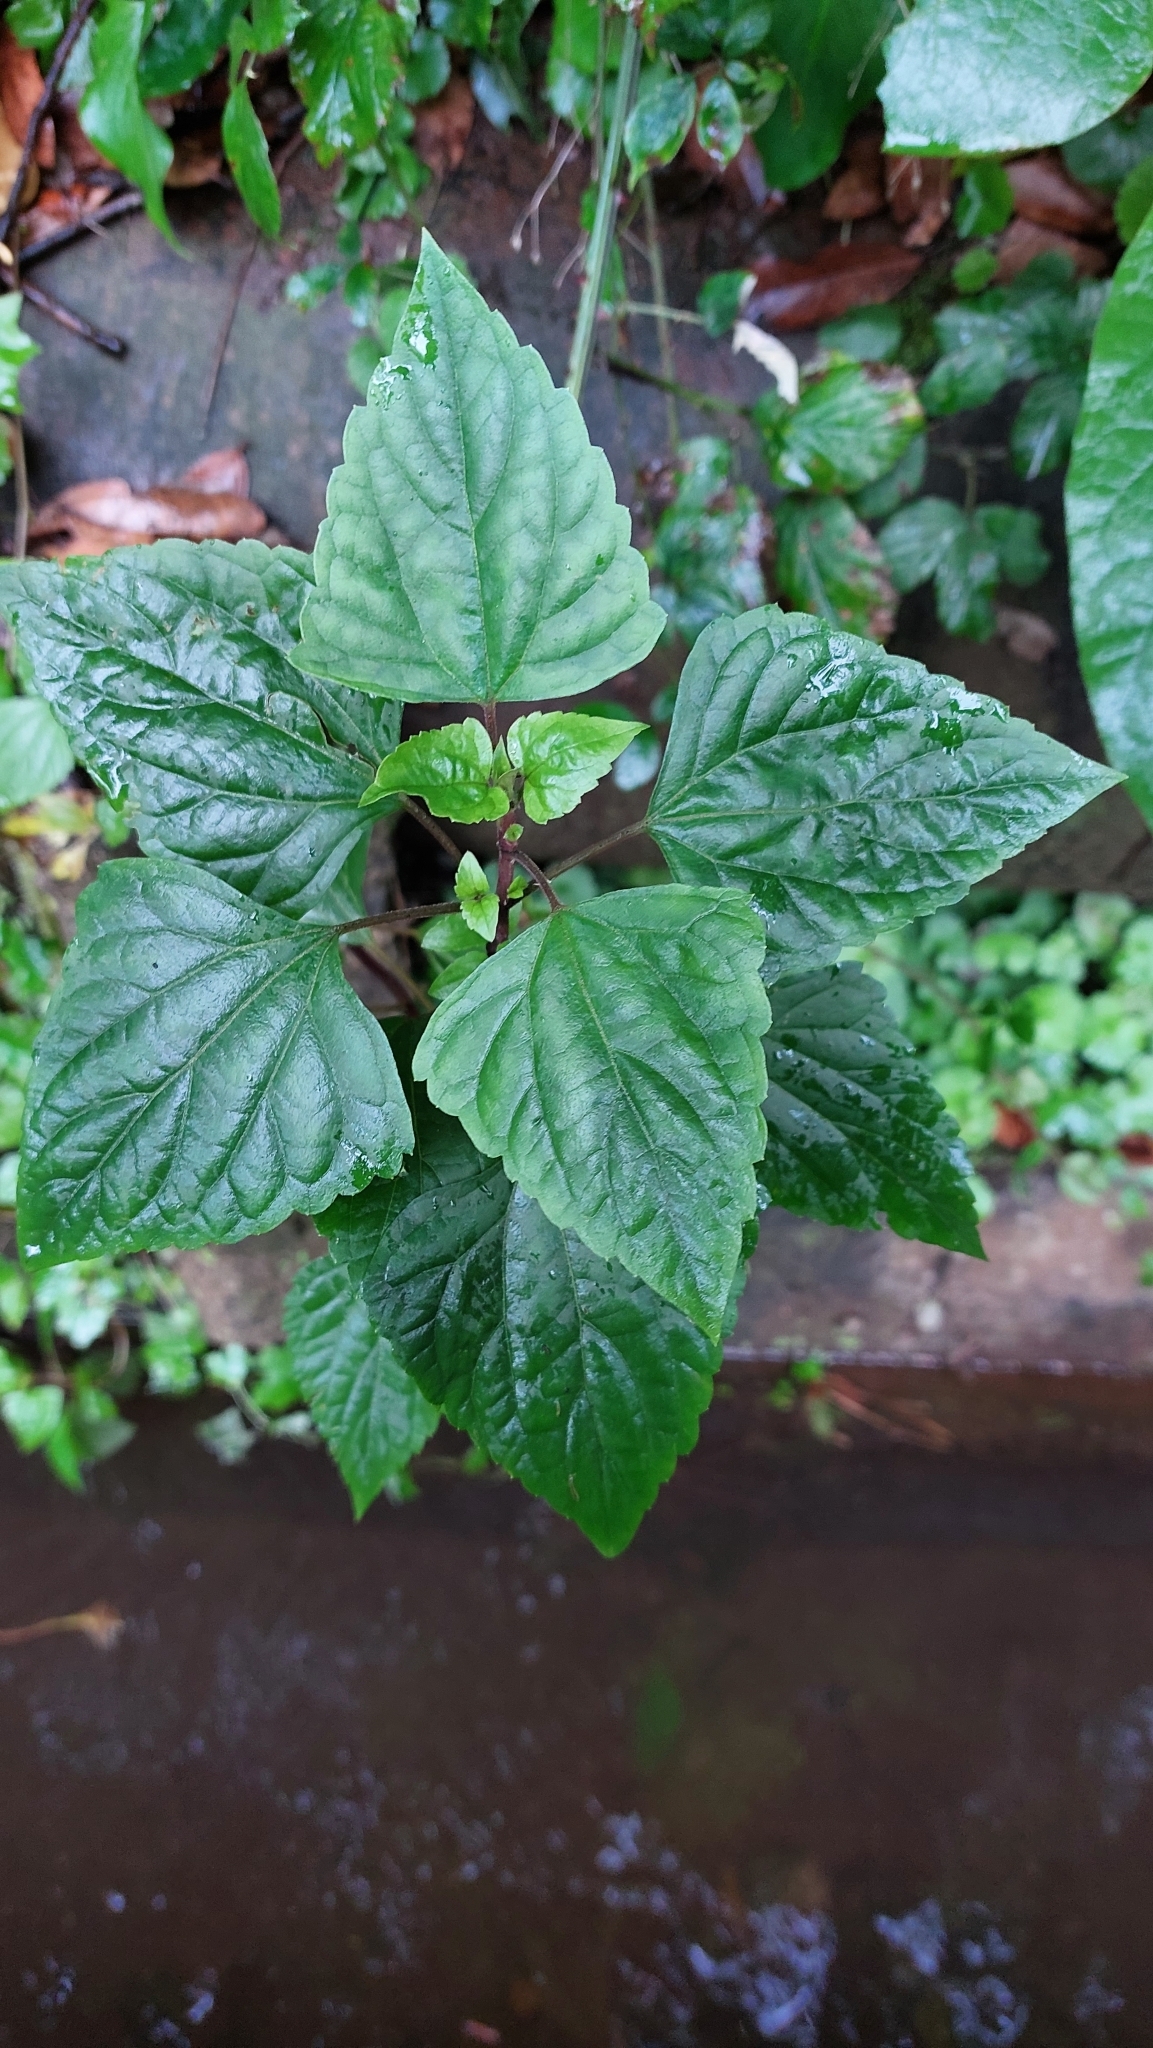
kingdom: Plantae
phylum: Tracheophyta
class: Magnoliopsida
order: Asterales
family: Asteraceae
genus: Ageratina
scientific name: Ageratina adenophora
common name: Sticky snakeroot
